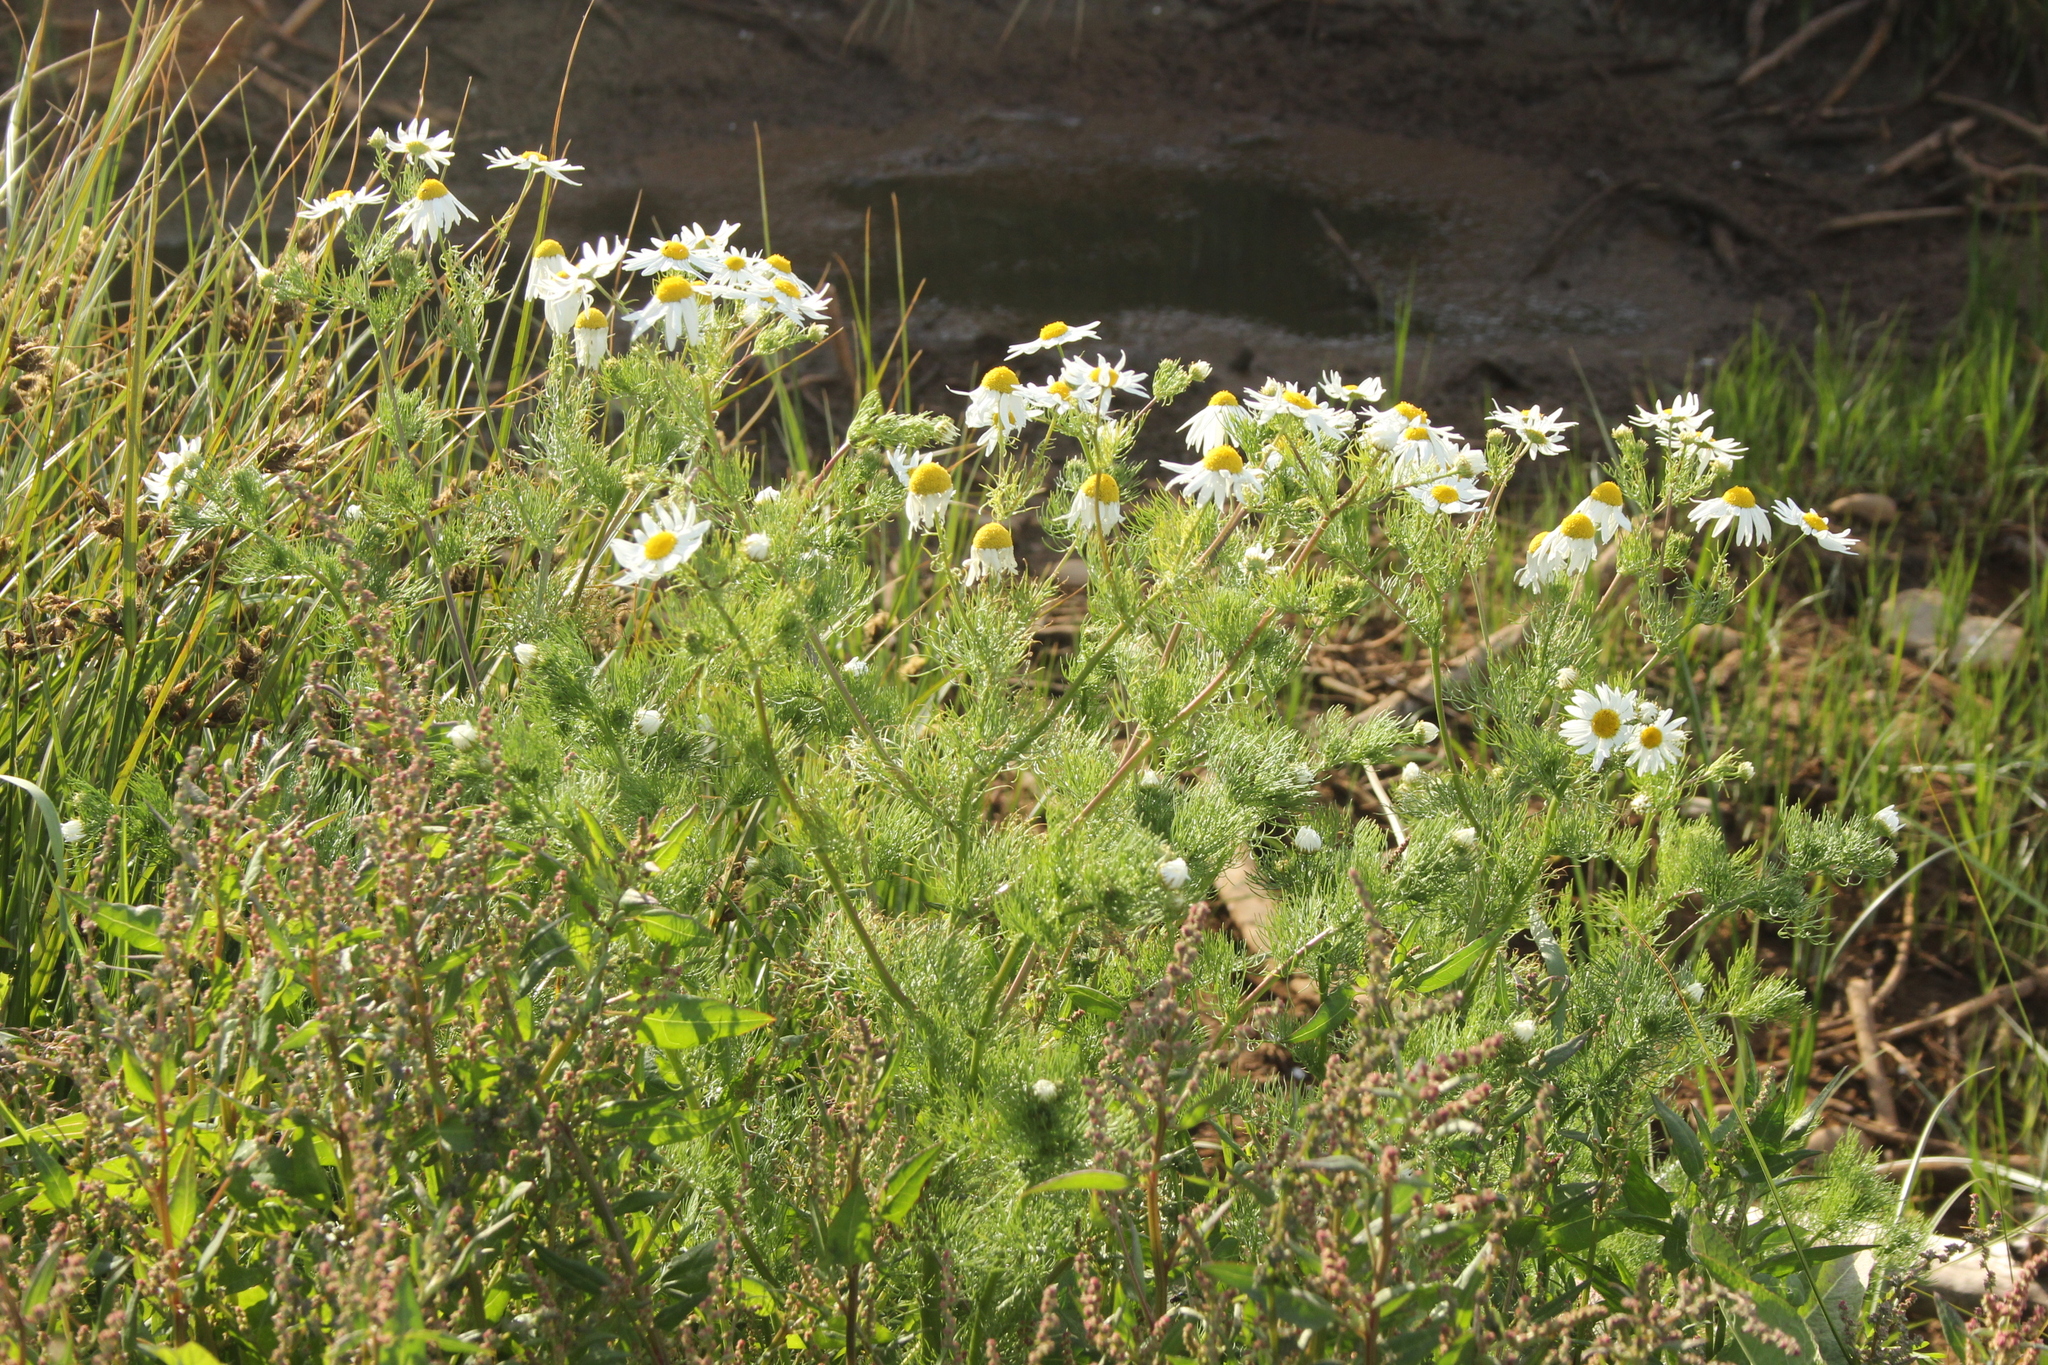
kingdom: Plantae
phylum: Tracheophyta
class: Magnoliopsida
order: Asterales
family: Asteraceae
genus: Tripleurospermum
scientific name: Tripleurospermum inodorum
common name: Scentless mayweed
